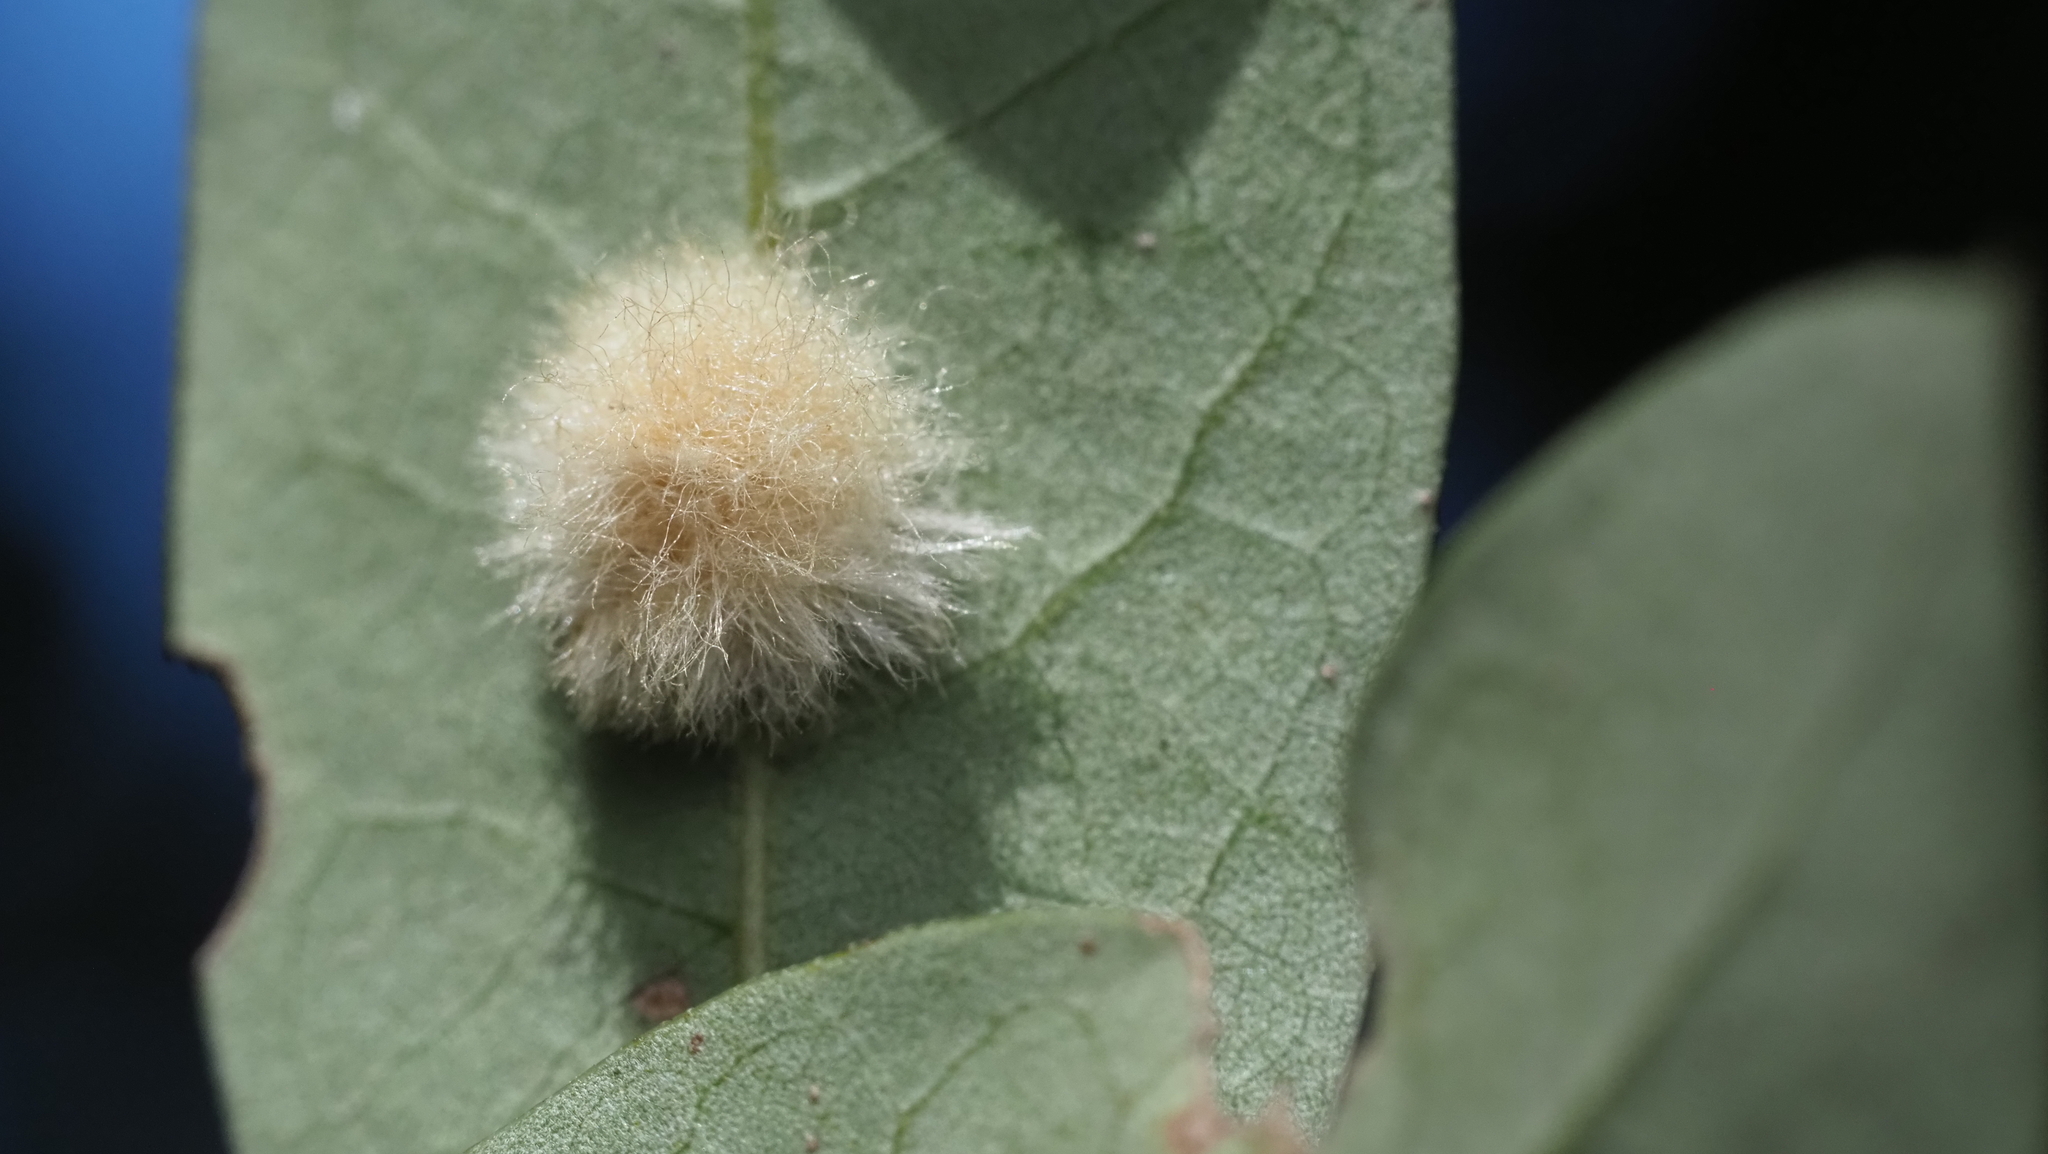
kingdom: Animalia
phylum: Arthropoda
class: Insecta
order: Hymenoptera
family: Cynipidae
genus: Andricus
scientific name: Andricus Druon quercuslanigerum
